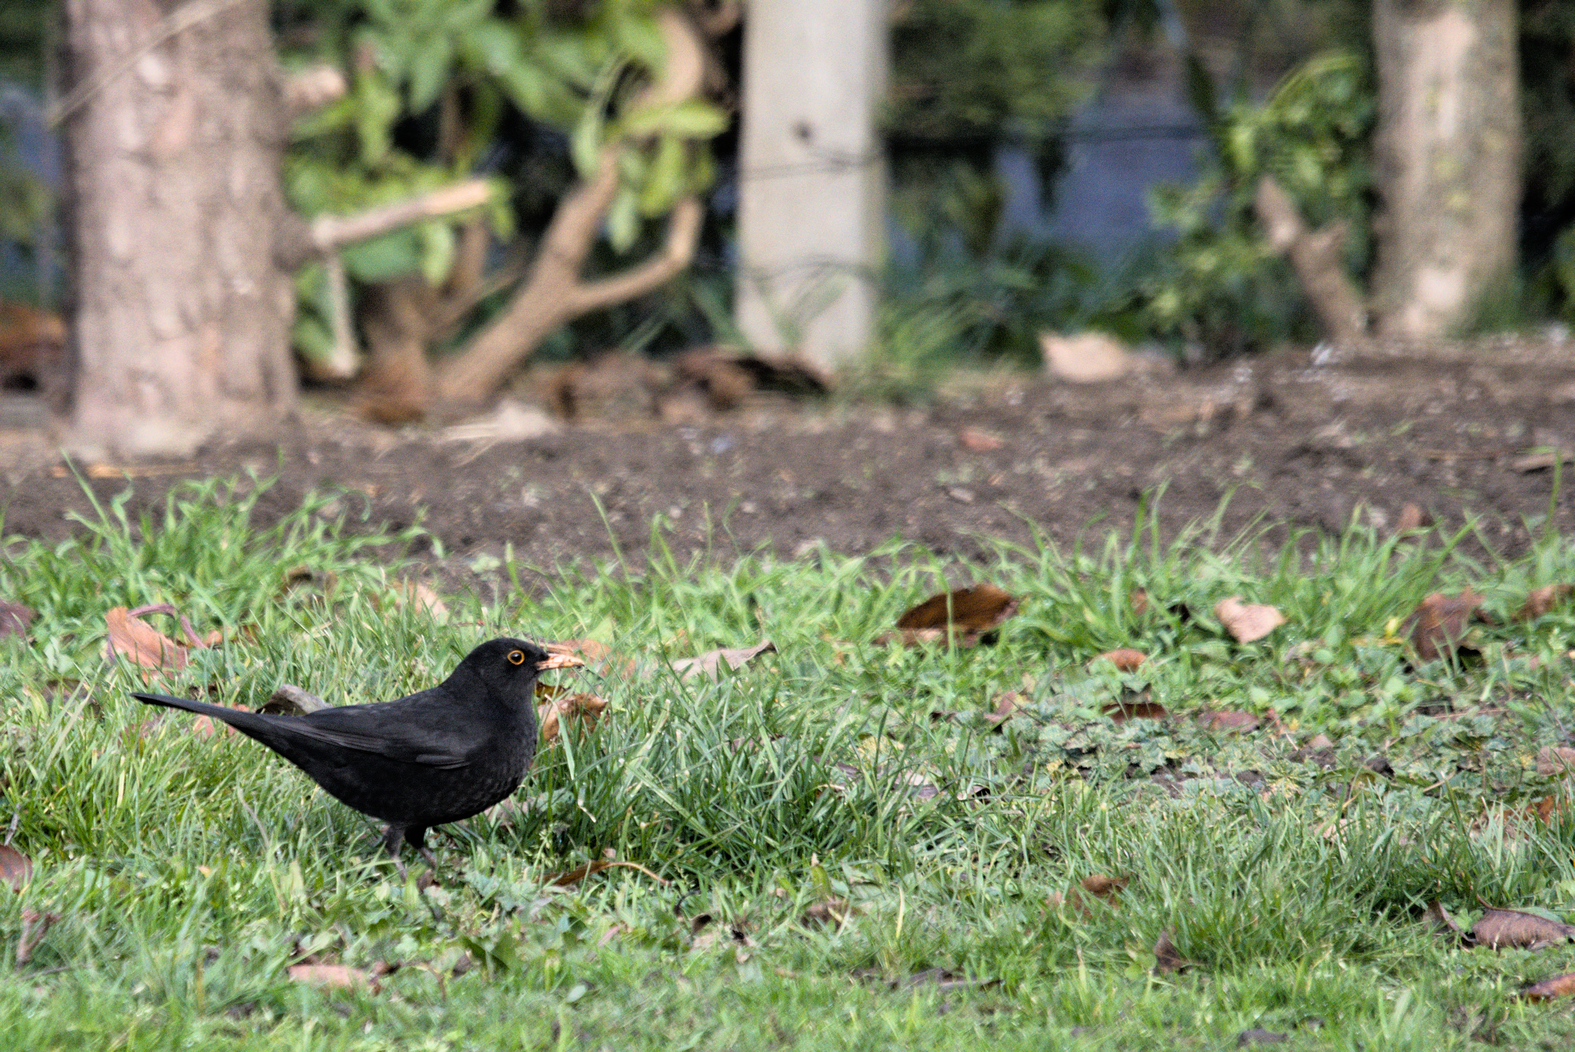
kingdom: Animalia
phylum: Chordata
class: Aves
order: Passeriformes
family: Turdidae
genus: Turdus
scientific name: Turdus merula
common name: Common blackbird
